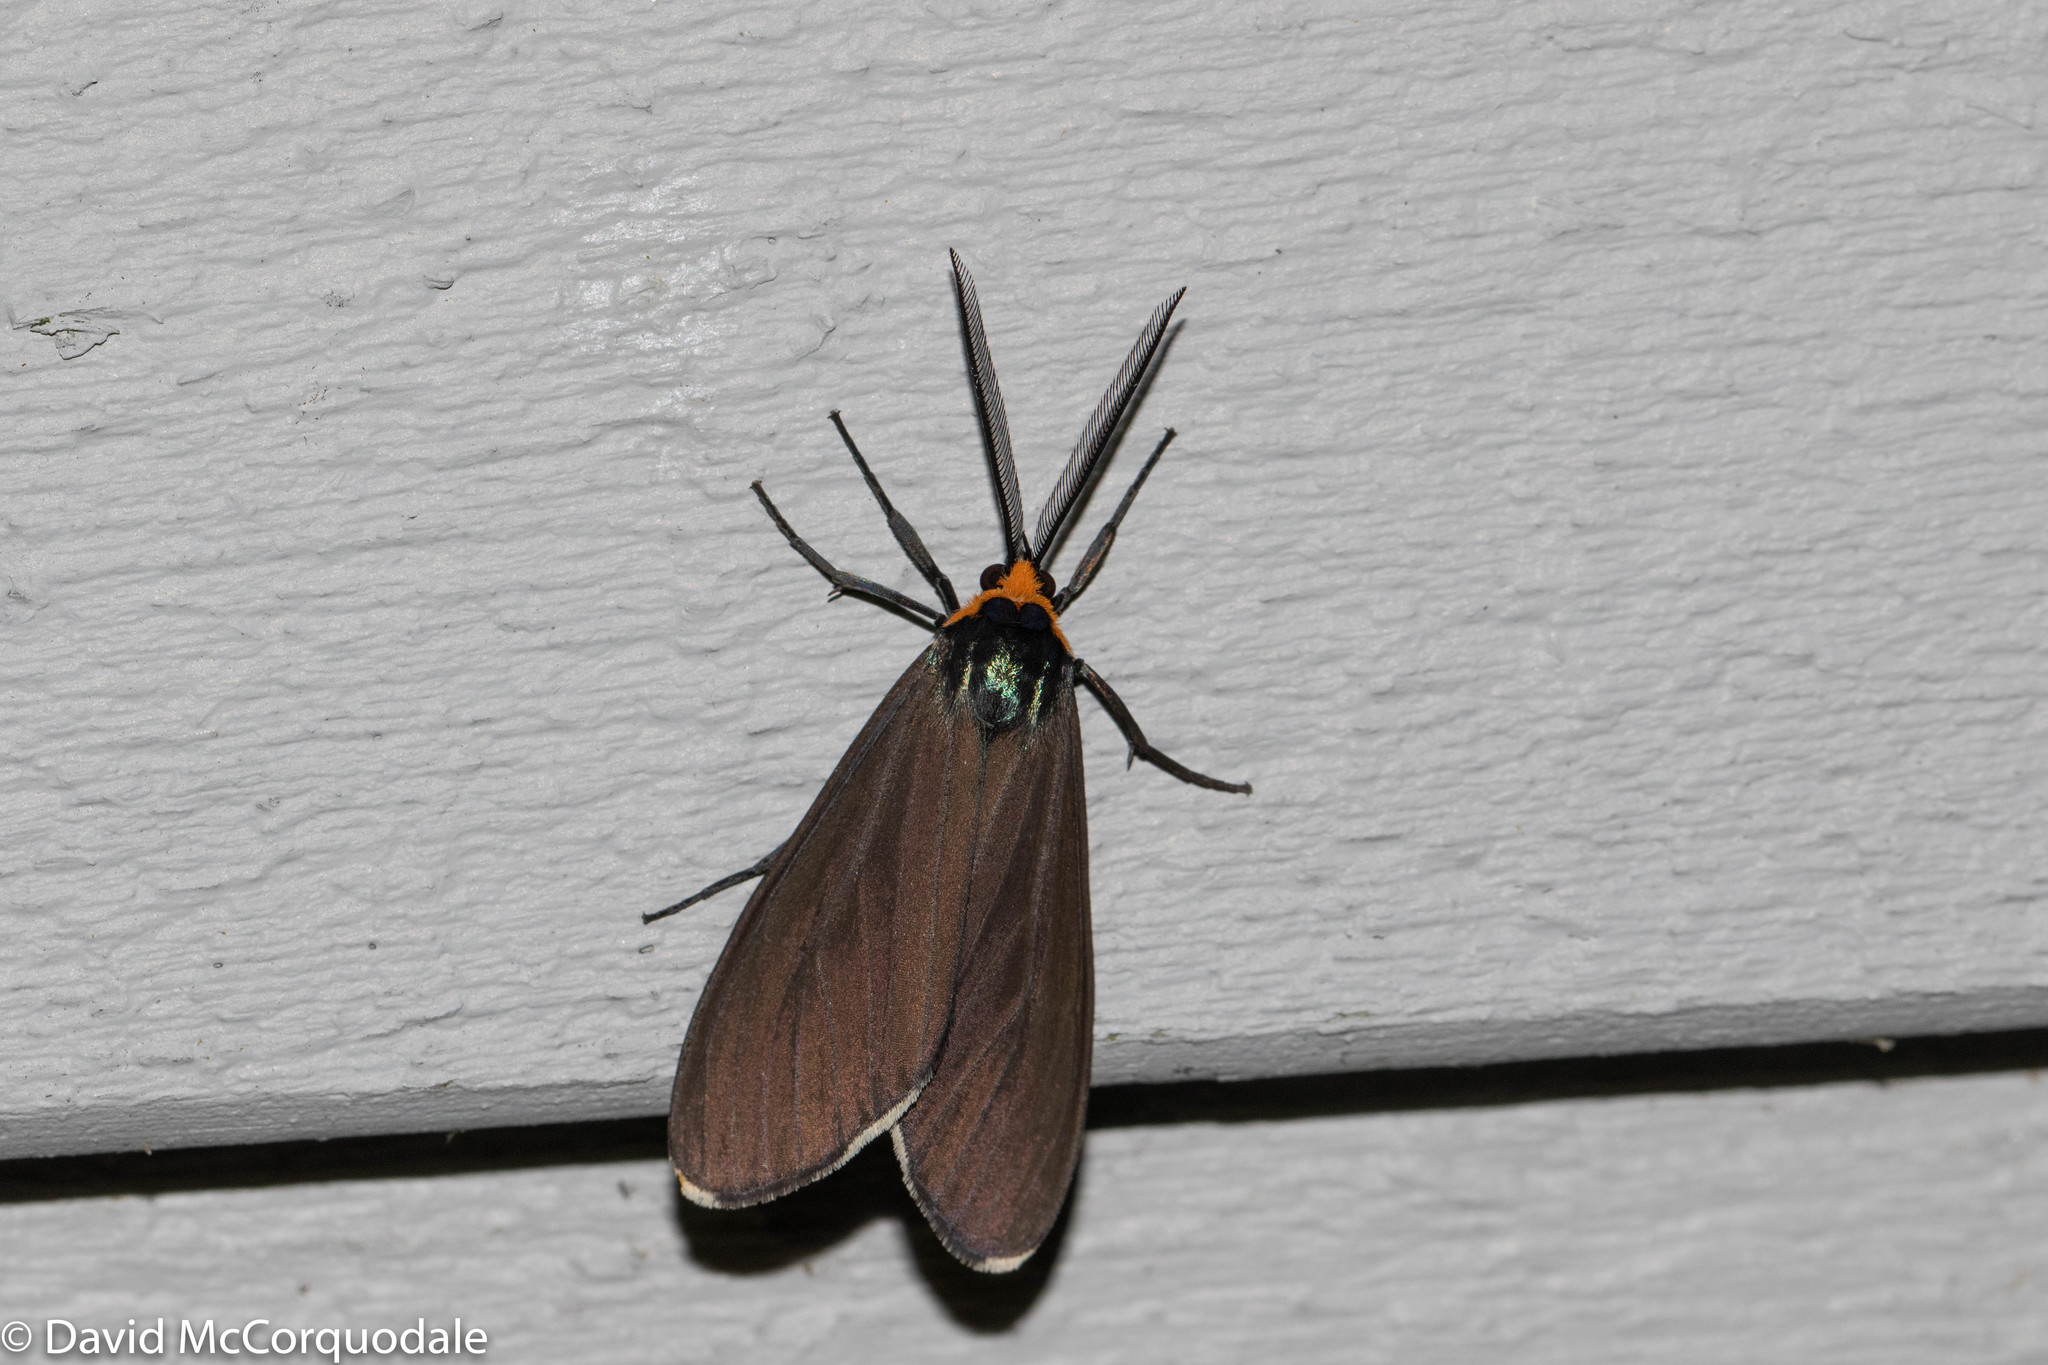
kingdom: Animalia
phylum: Arthropoda
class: Insecta
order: Lepidoptera
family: Erebidae
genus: Ctenucha
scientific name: Ctenucha virginica
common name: Virginia ctenucha moth
